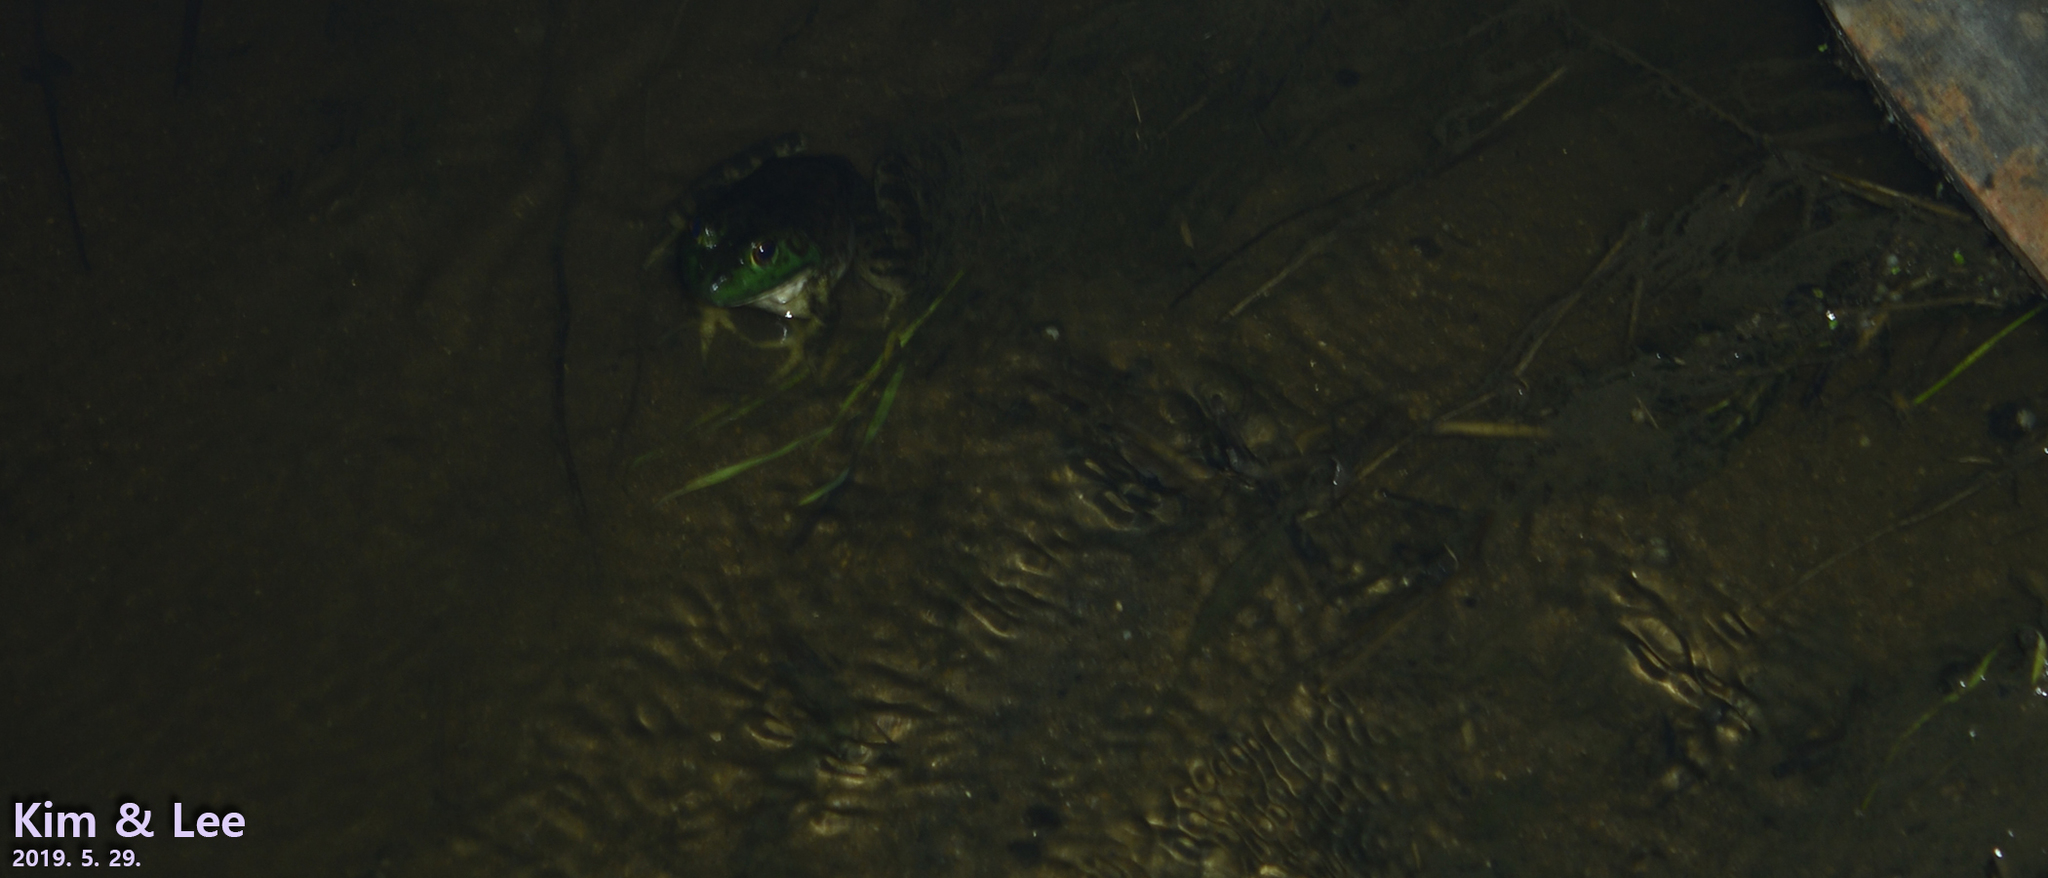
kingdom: Animalia
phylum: Chordata
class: Amphibia
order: Anura
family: Ranidae
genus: Lithobates
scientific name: Lithobates catesbeianus
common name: American bullfrog
